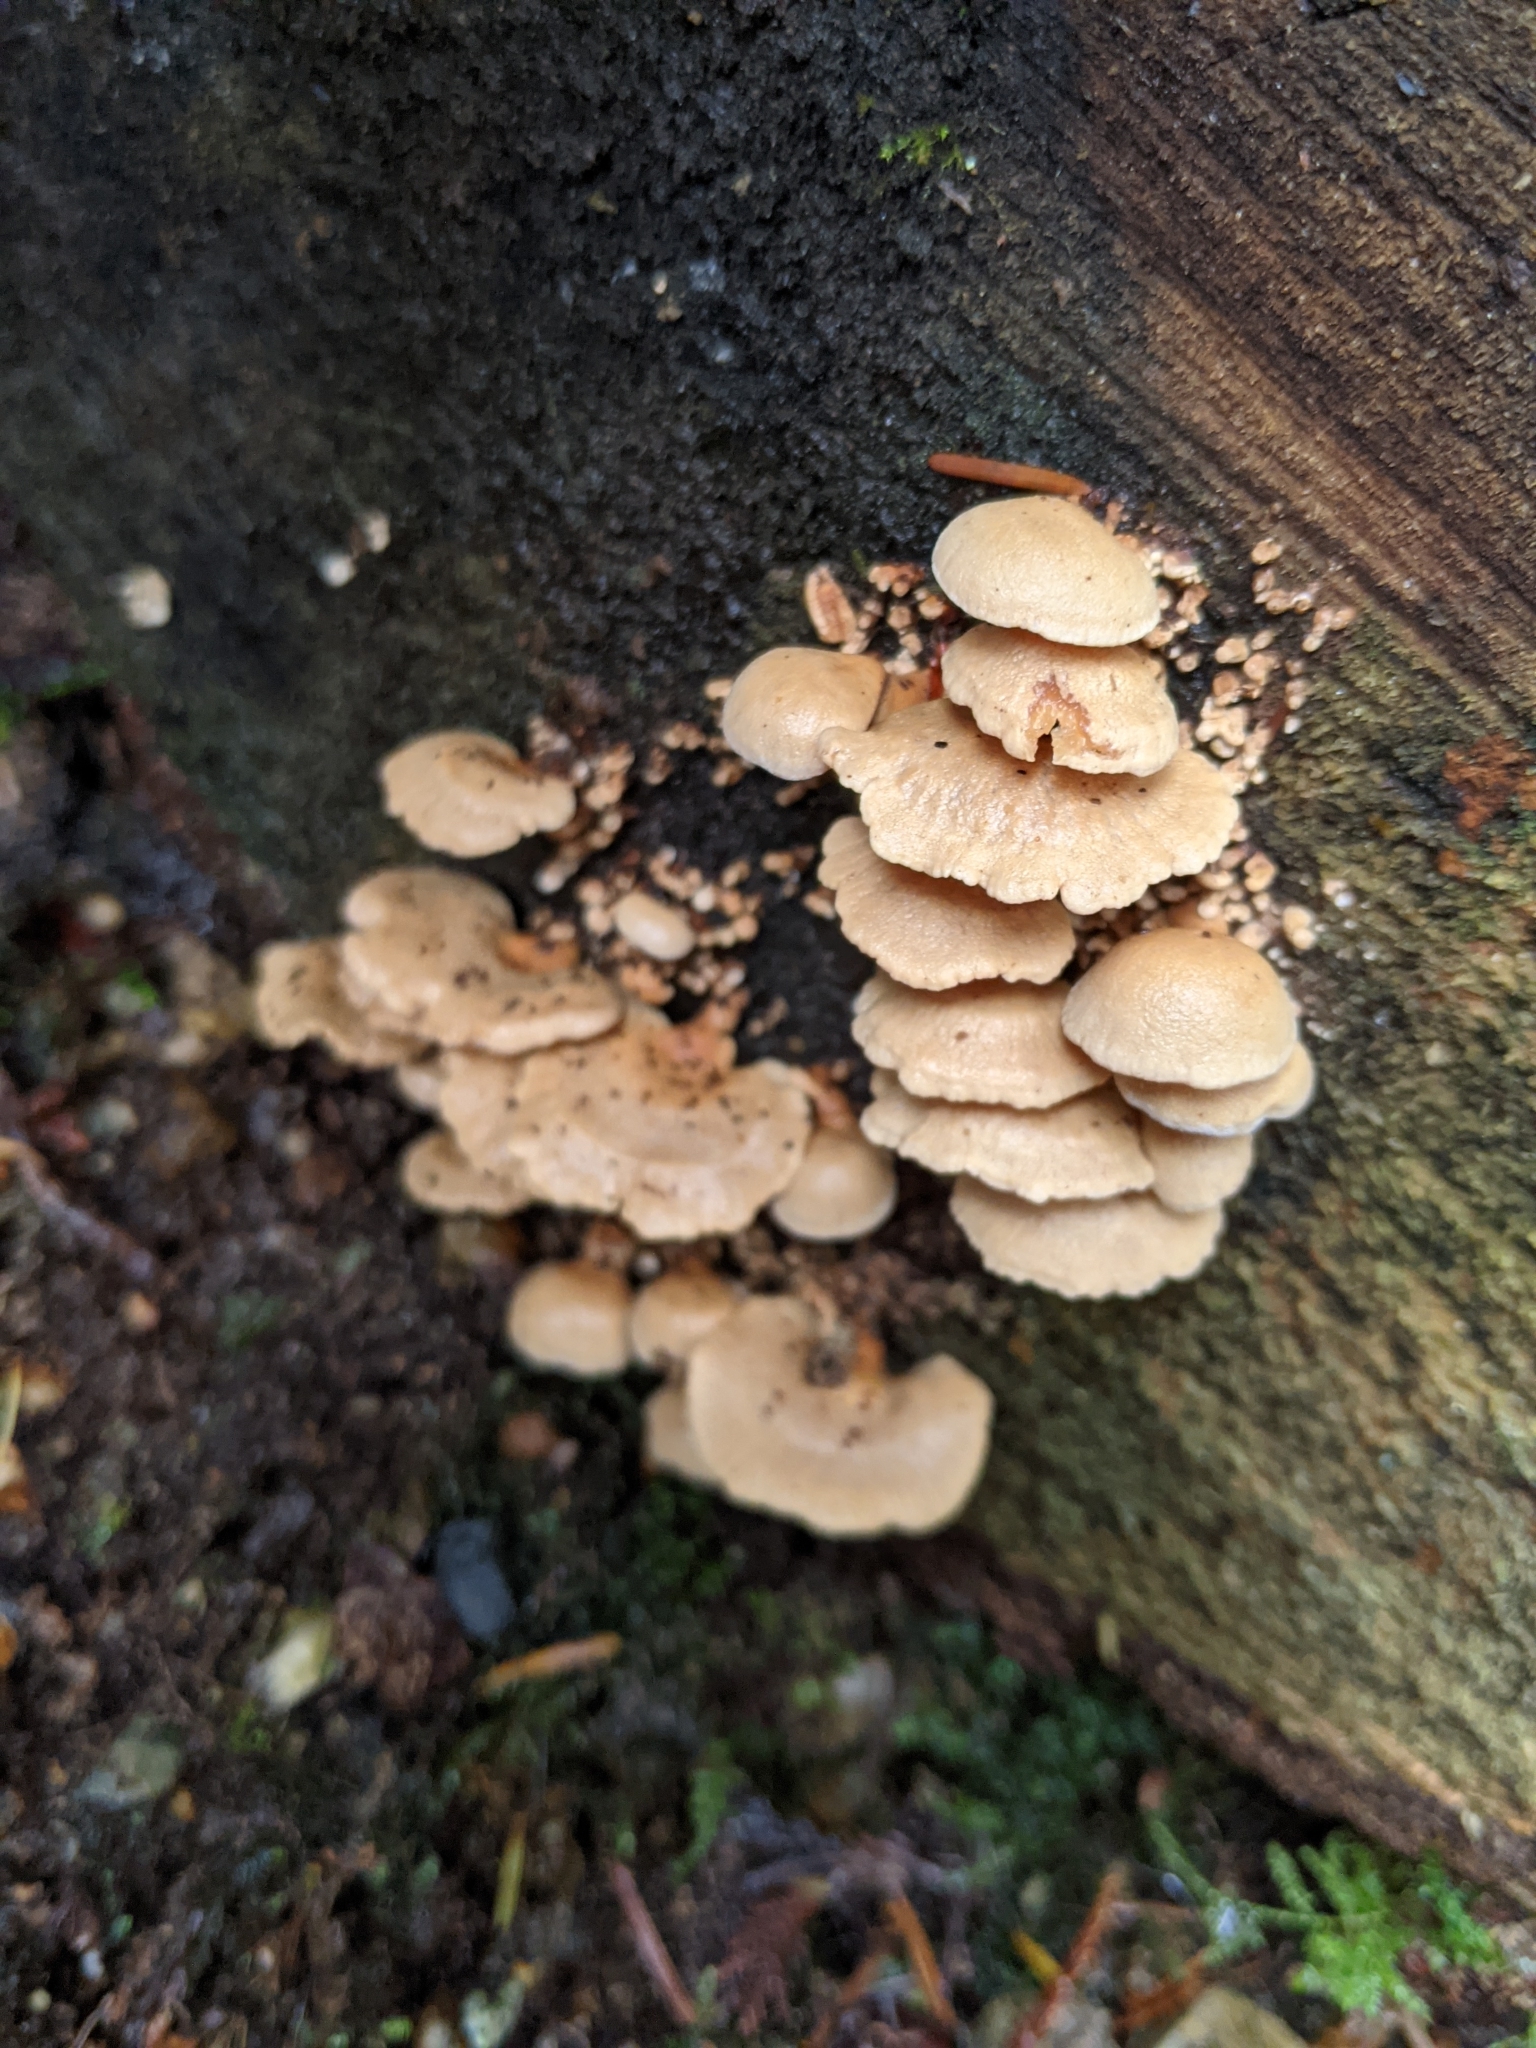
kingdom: Fungi
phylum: Basidiomycota
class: Agaricomycetes
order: Agaricales
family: Mycenaceae
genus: Panellus
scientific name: Panellus stipticus
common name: Bitter oysterling
